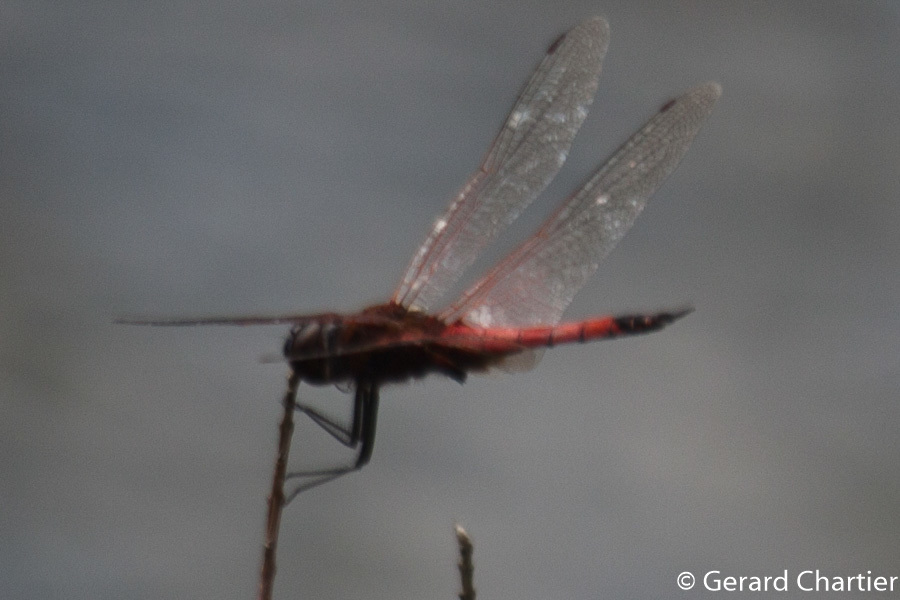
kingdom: Animalia
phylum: Arthropoda
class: Insecta
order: Odonata
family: Libellulidae
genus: Tramea
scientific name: Tramea transmarina
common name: Red glider dragonfly
